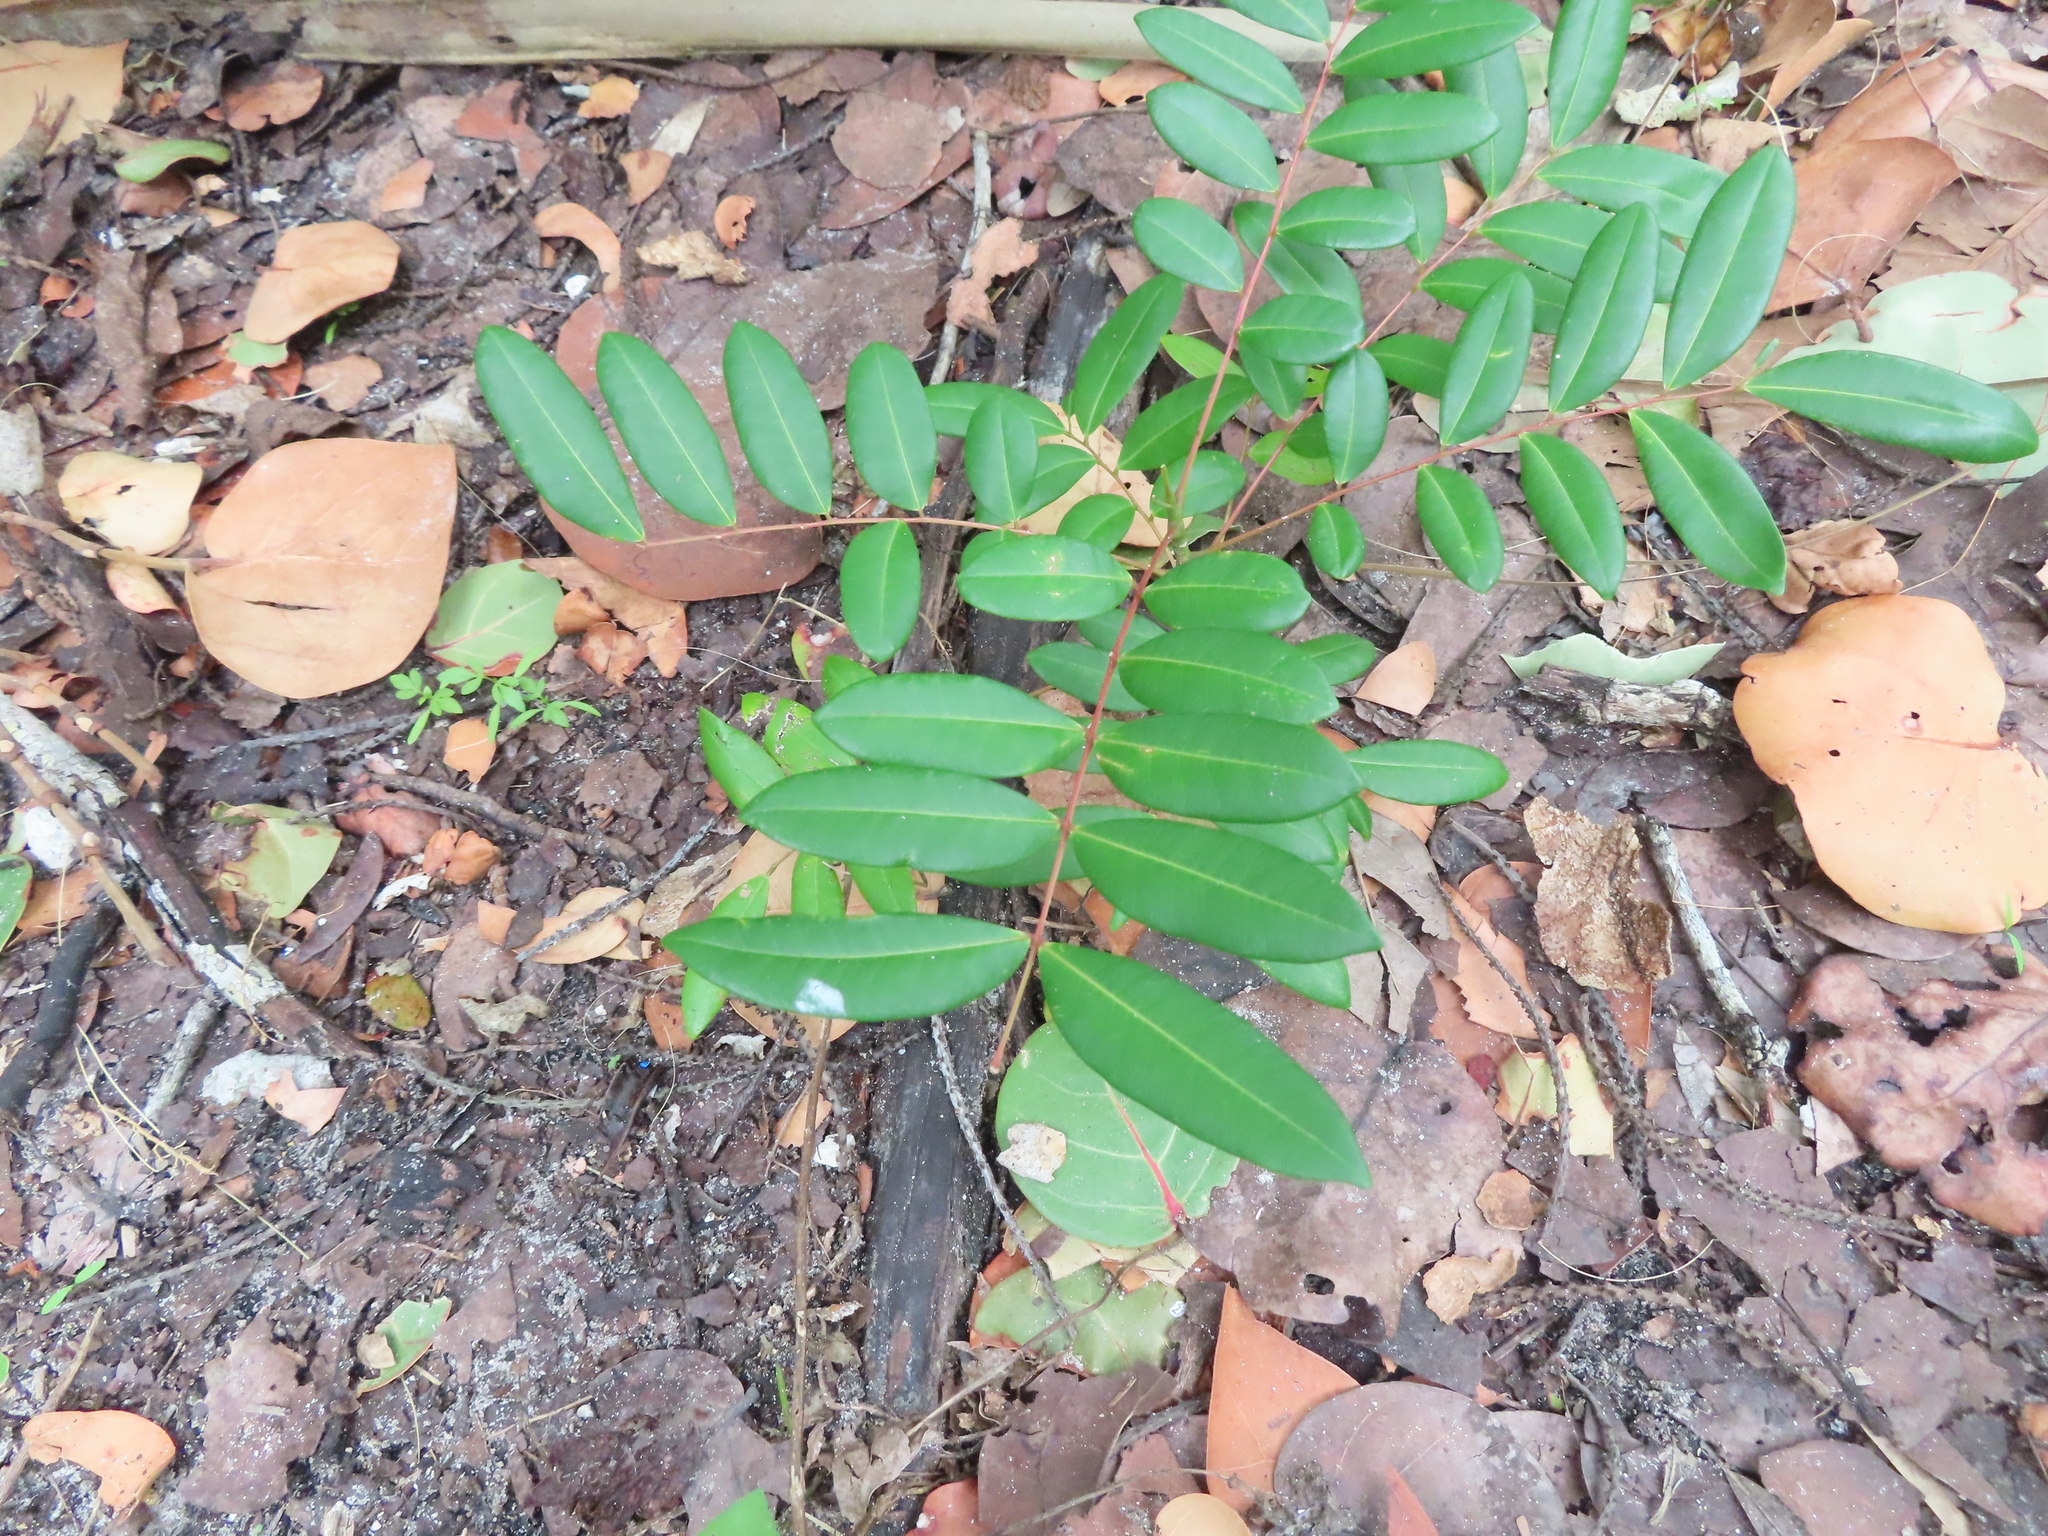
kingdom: Plantae
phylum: Tracheophyta
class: Magnoliopsida
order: Sapindales
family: Simaroubaceae
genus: Simarouba
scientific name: Simarouba glauca
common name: Dysentery-bark
